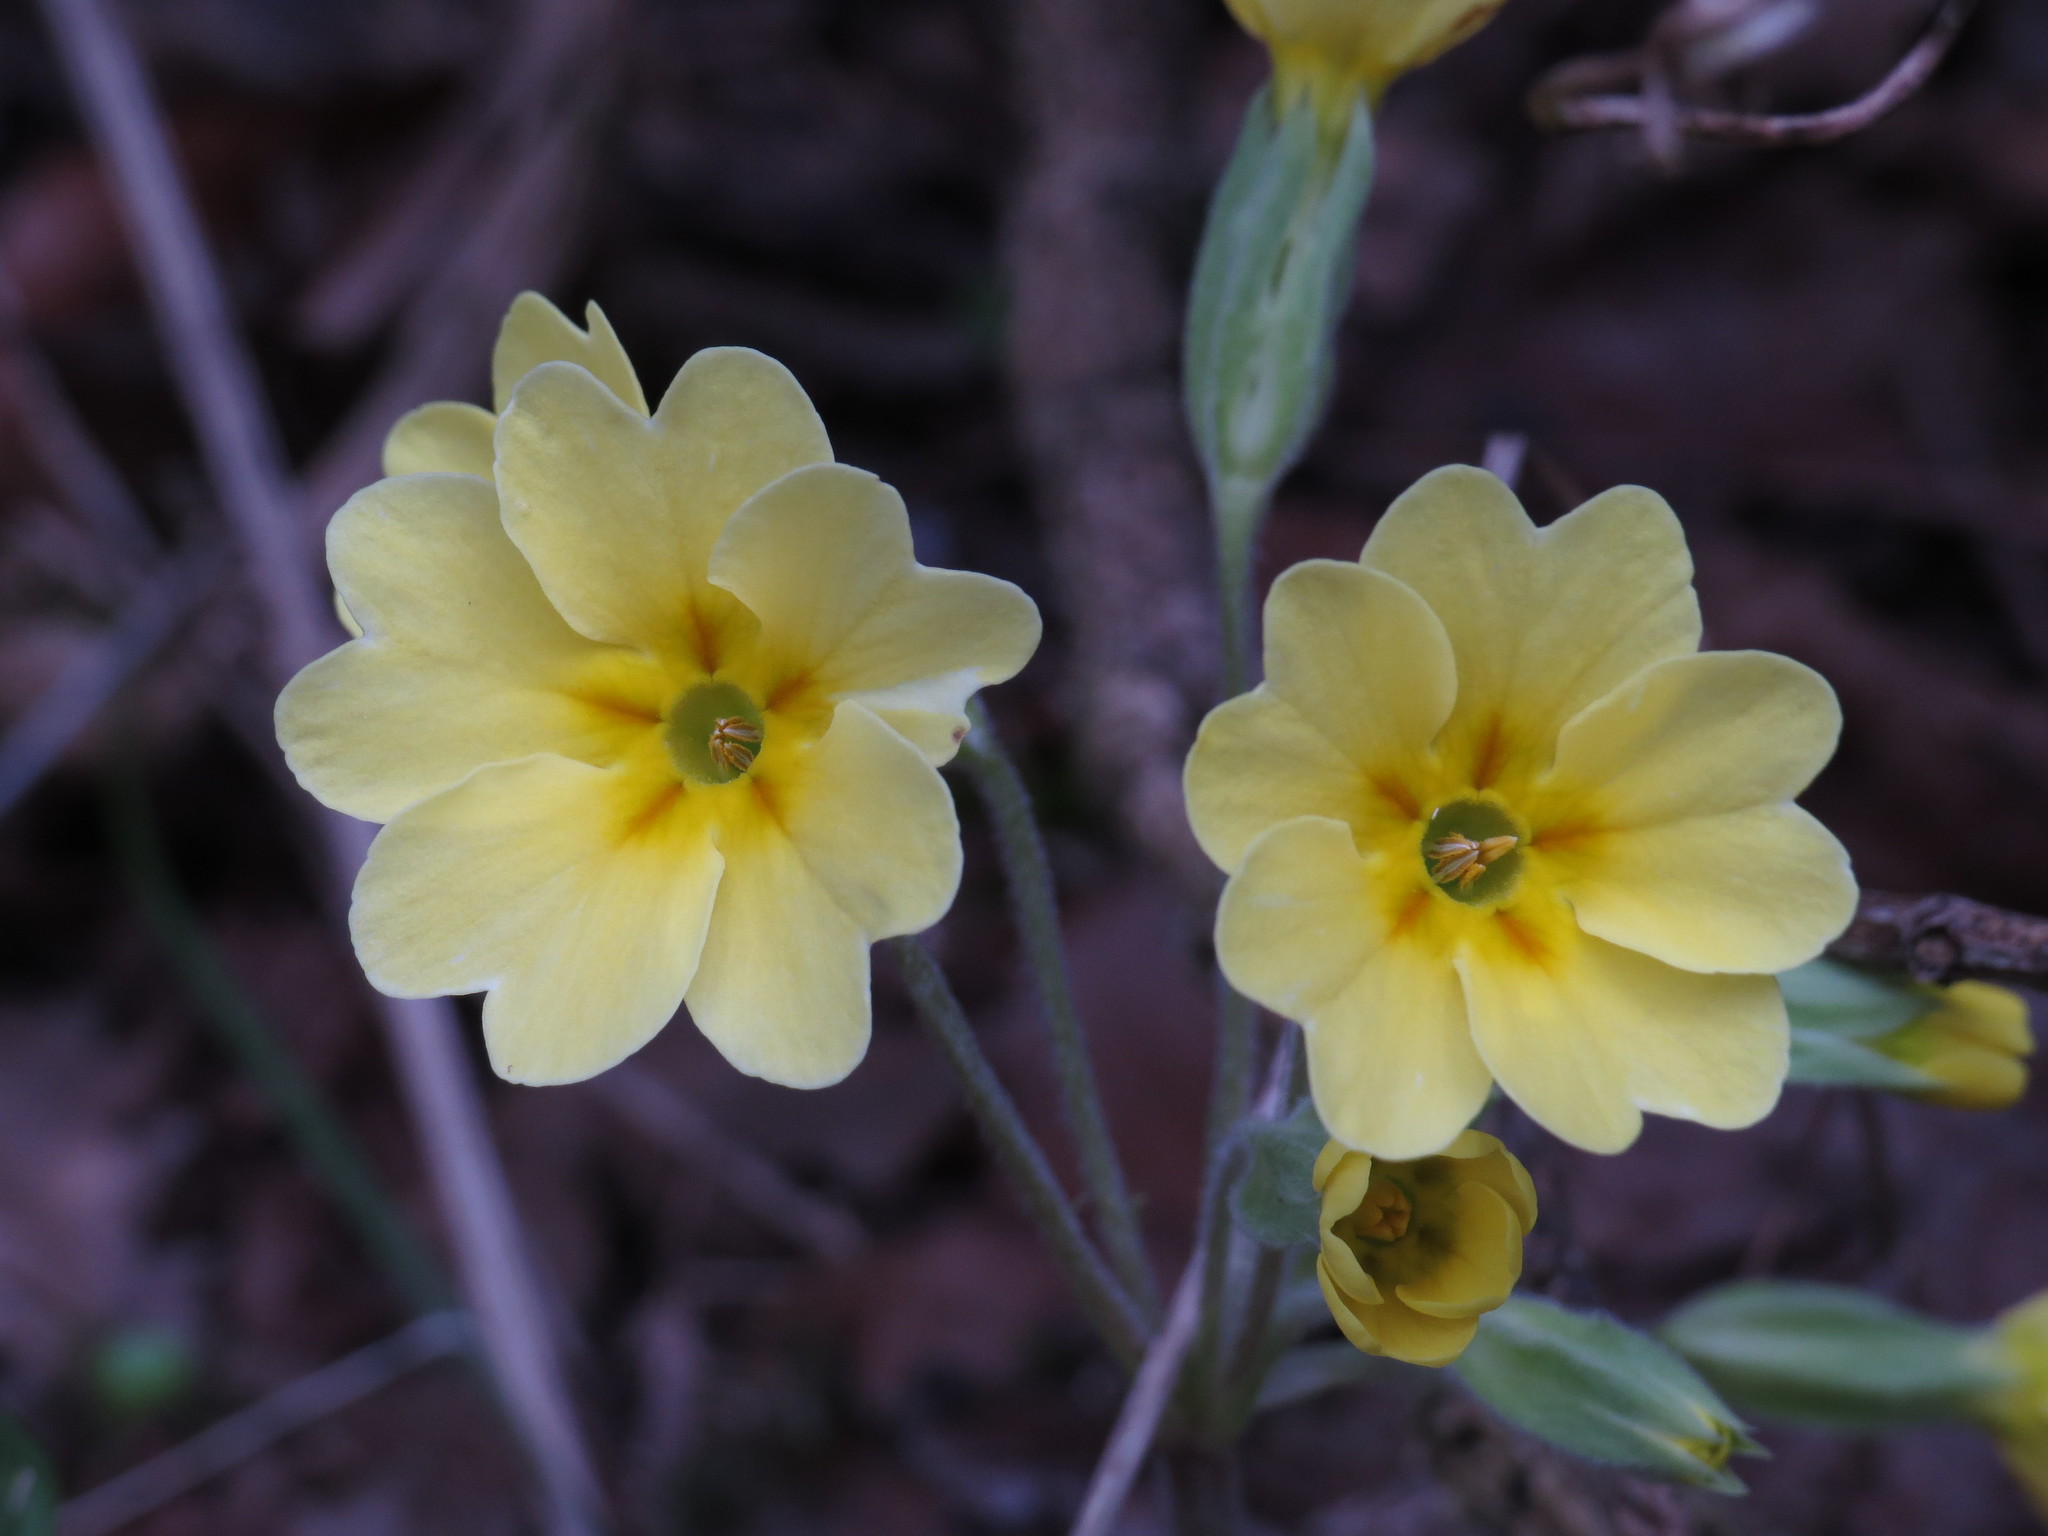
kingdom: Plantae
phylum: Tracheophyta
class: Magnoliopsida
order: Ericales
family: Primulaceae
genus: Primula
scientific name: Primula elatior
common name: Oxlip
